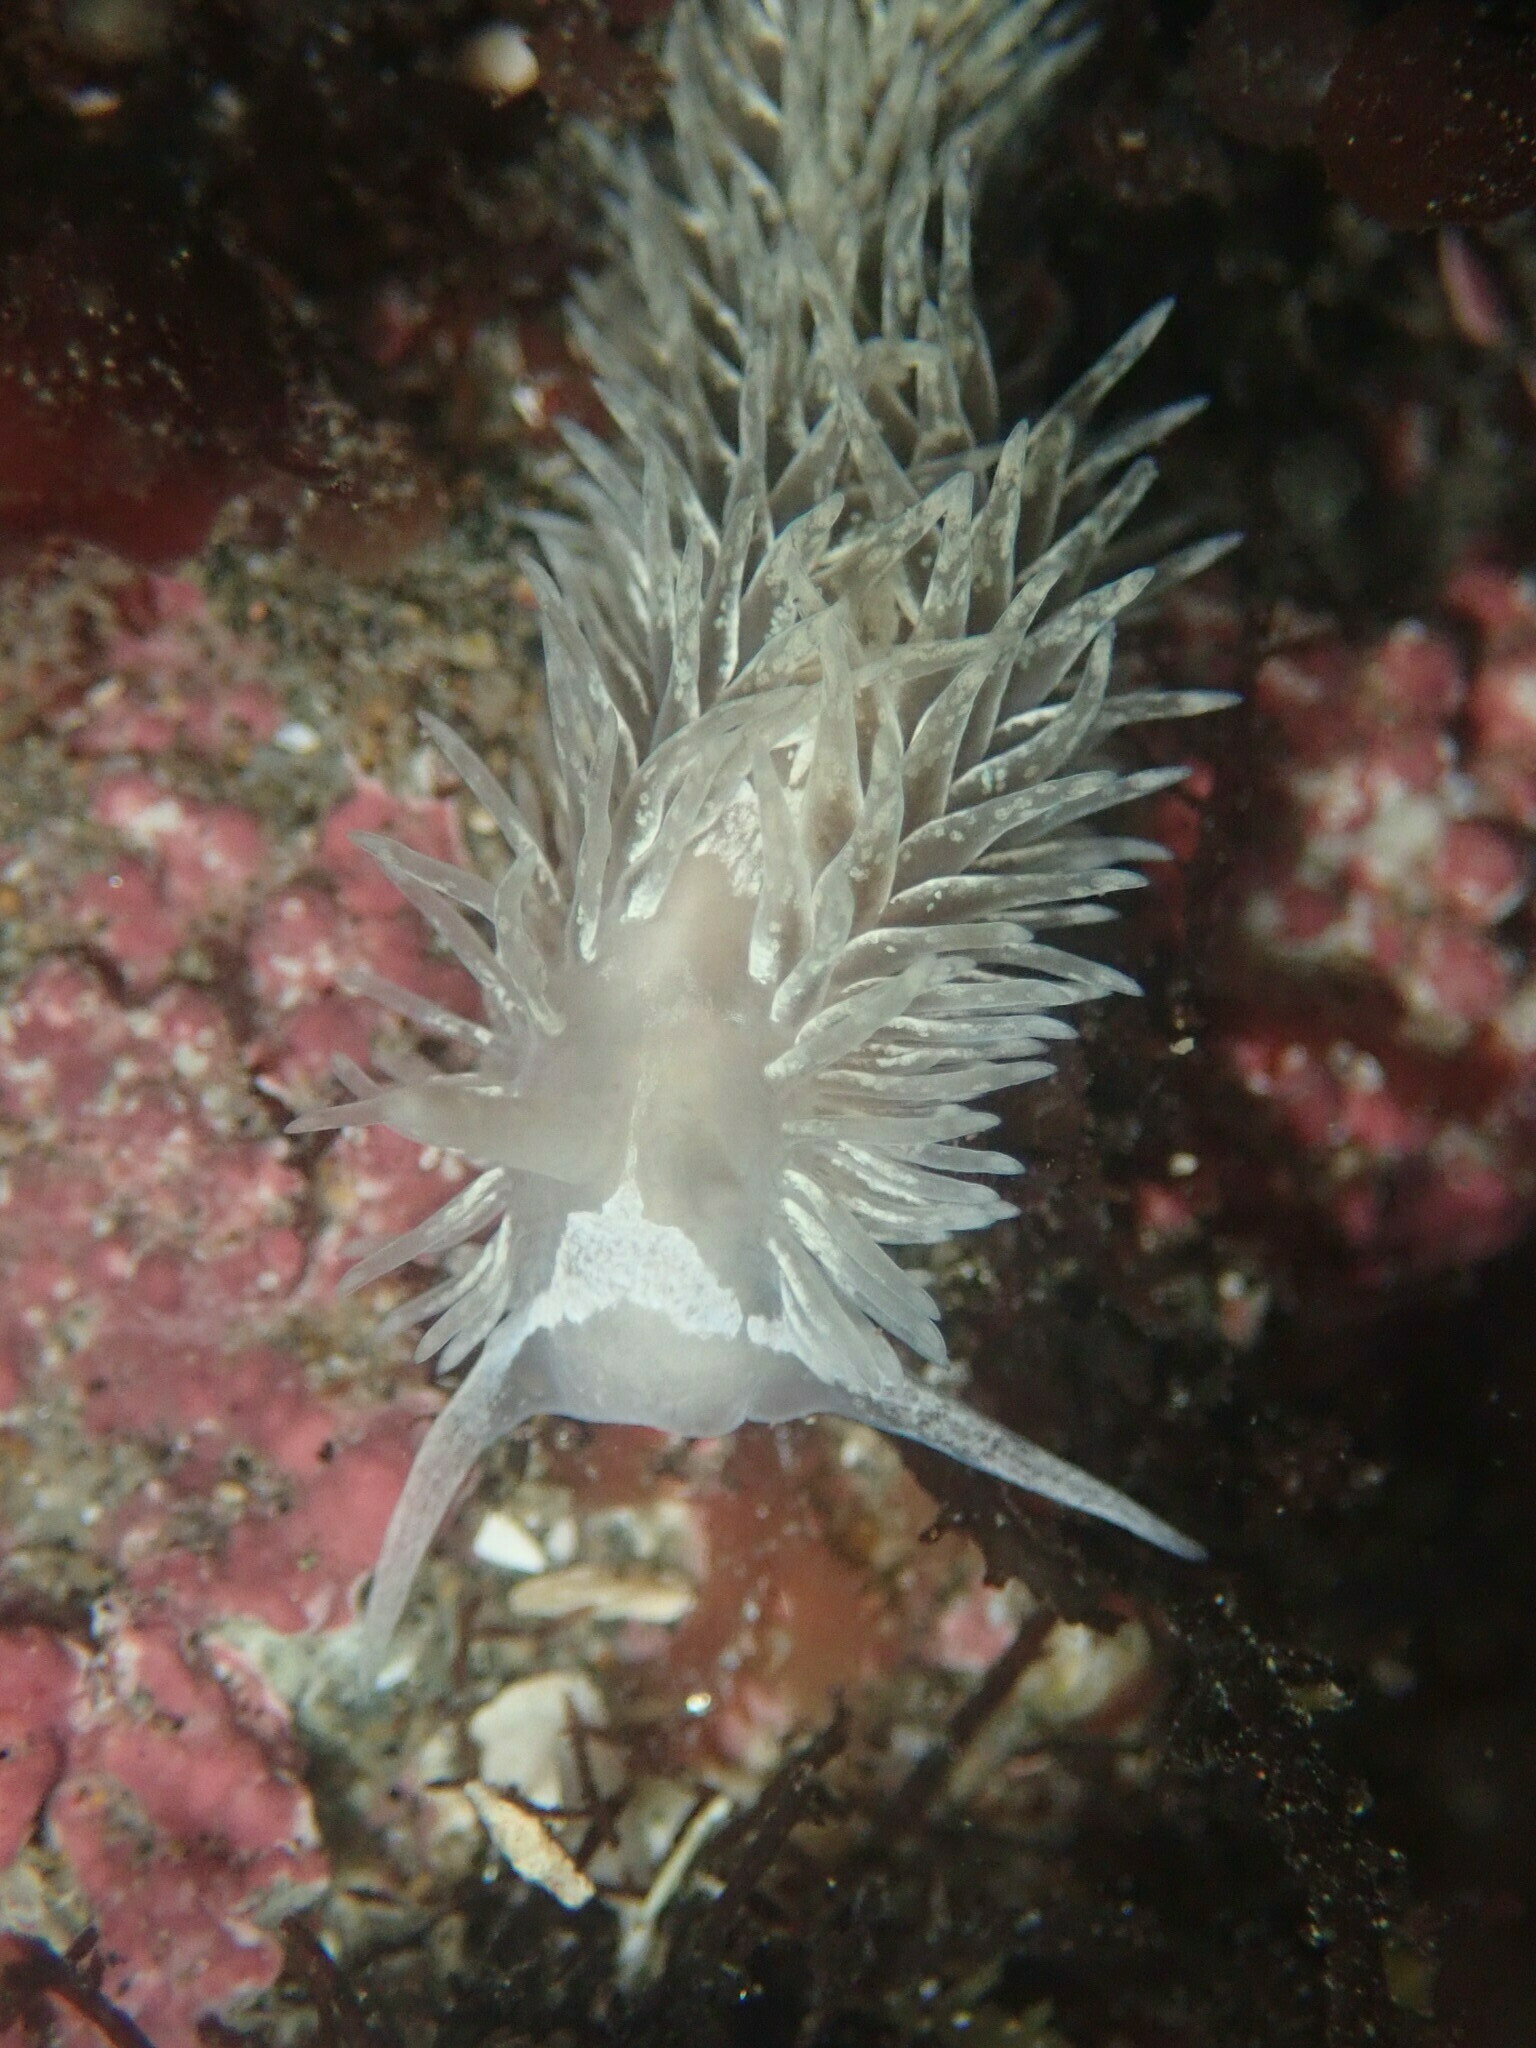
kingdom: Animalia
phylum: Mollusca
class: Gastropoda
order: Nudibranchia
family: Aeolidiidae
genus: Aeolidia
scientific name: Aeolidia loui
